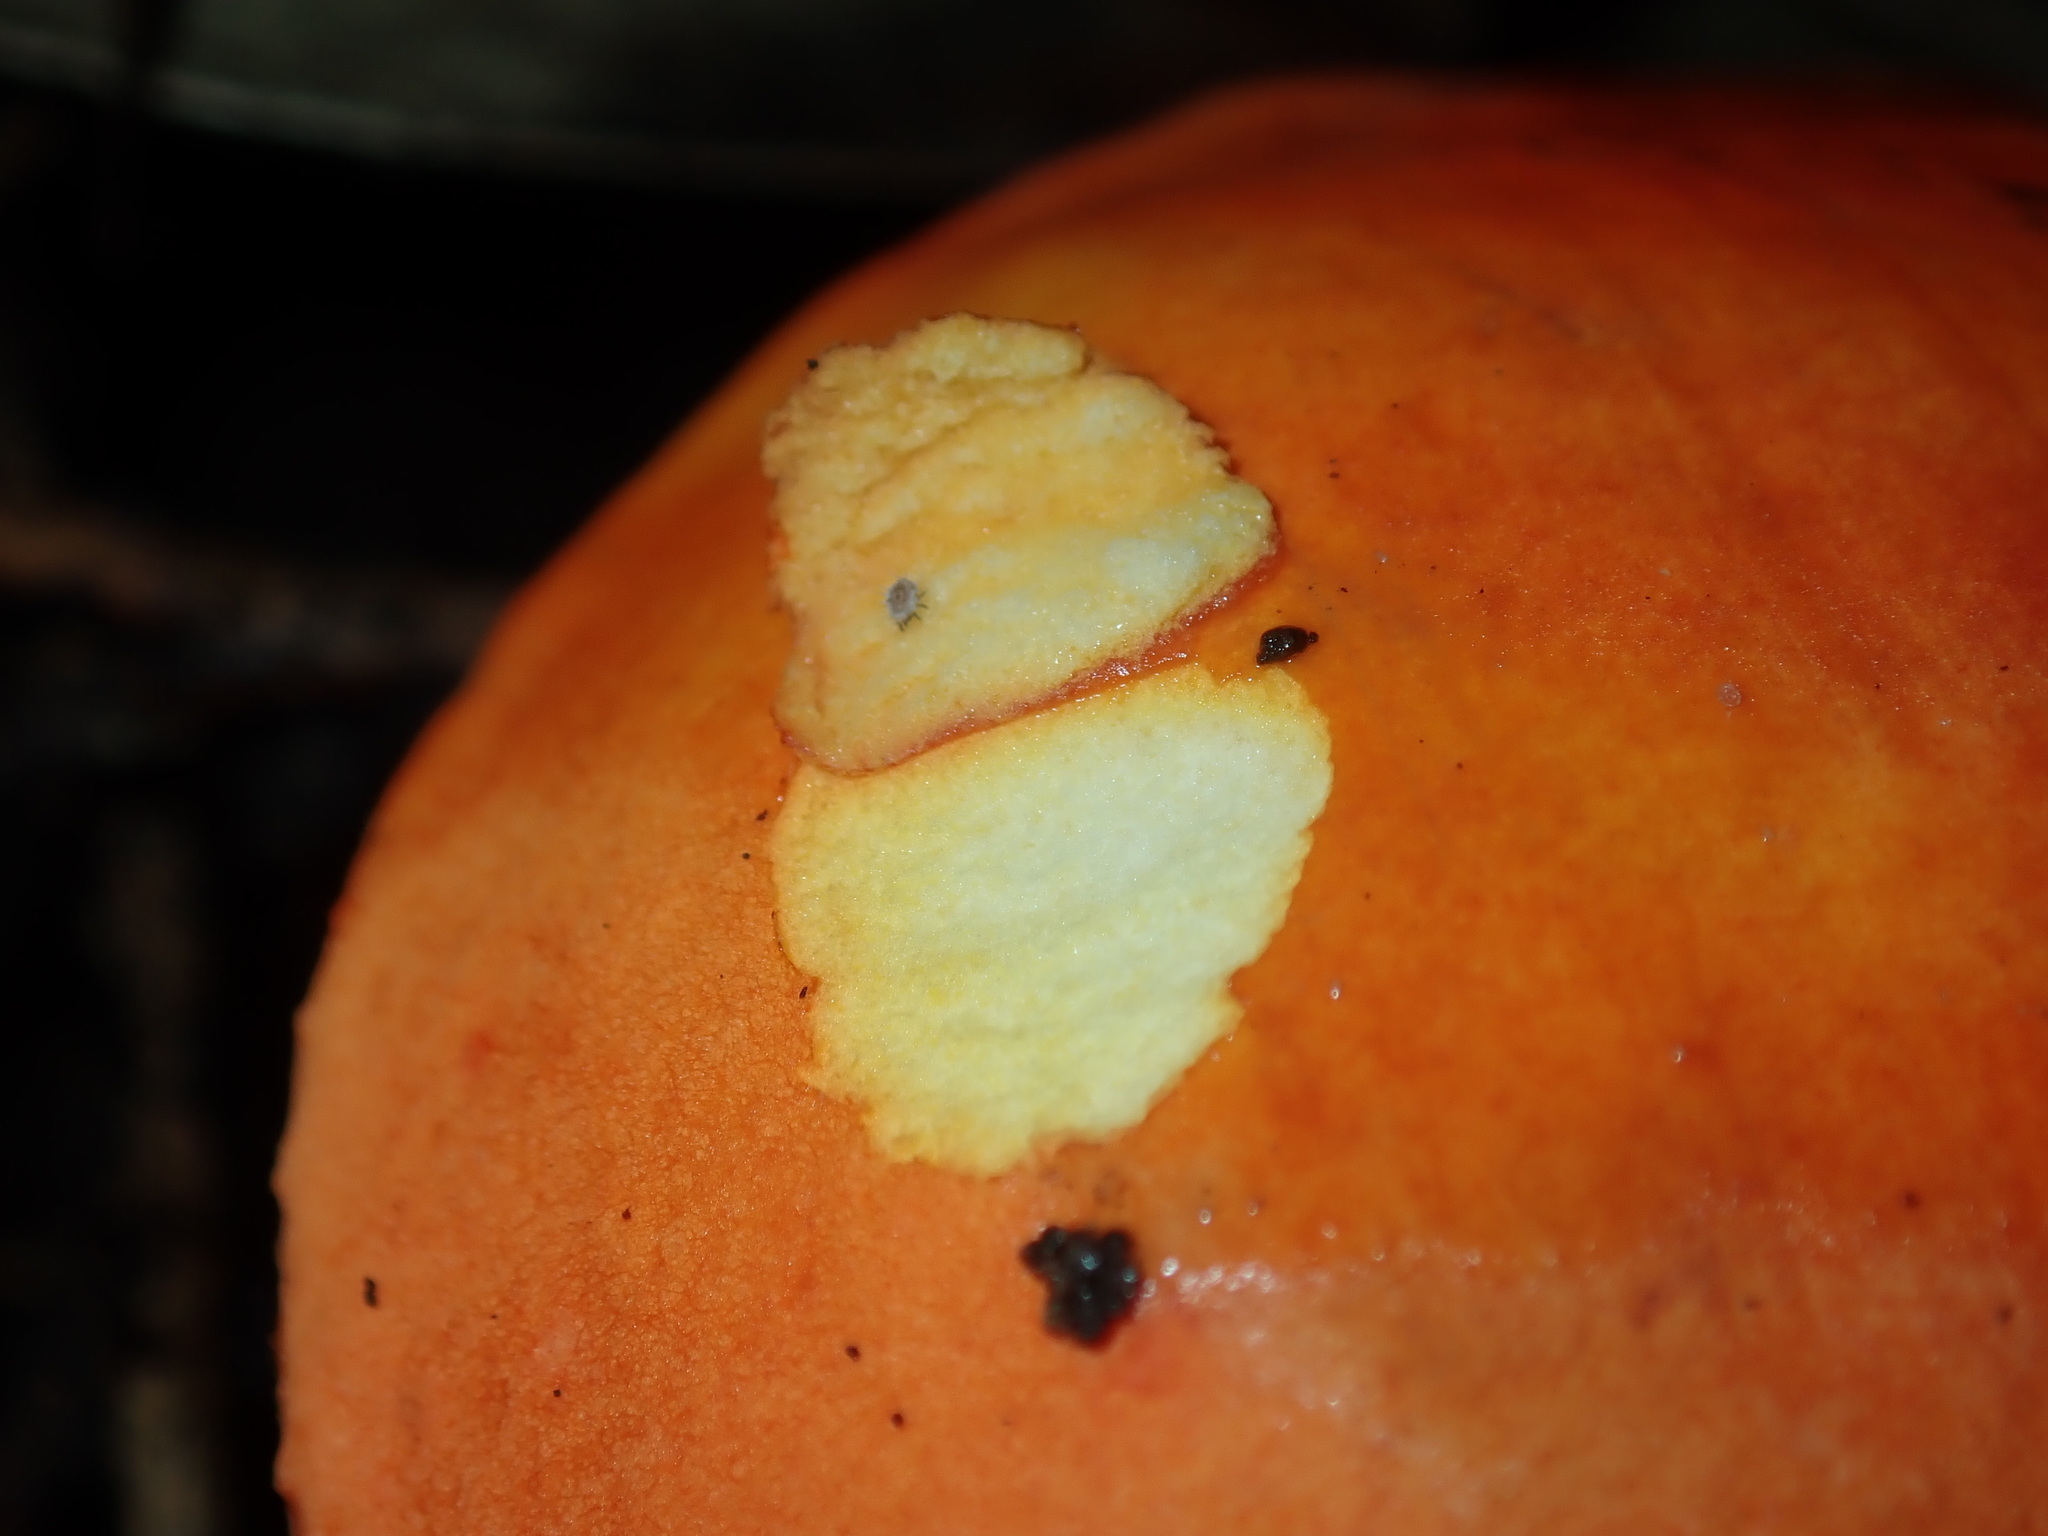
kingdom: Fungi
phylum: Basidiomycota
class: Agaricomycetes
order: Boletales
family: Boletaceae
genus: Tylopilus
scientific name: Tylopilus balloui
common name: Burnt-orange bolete
